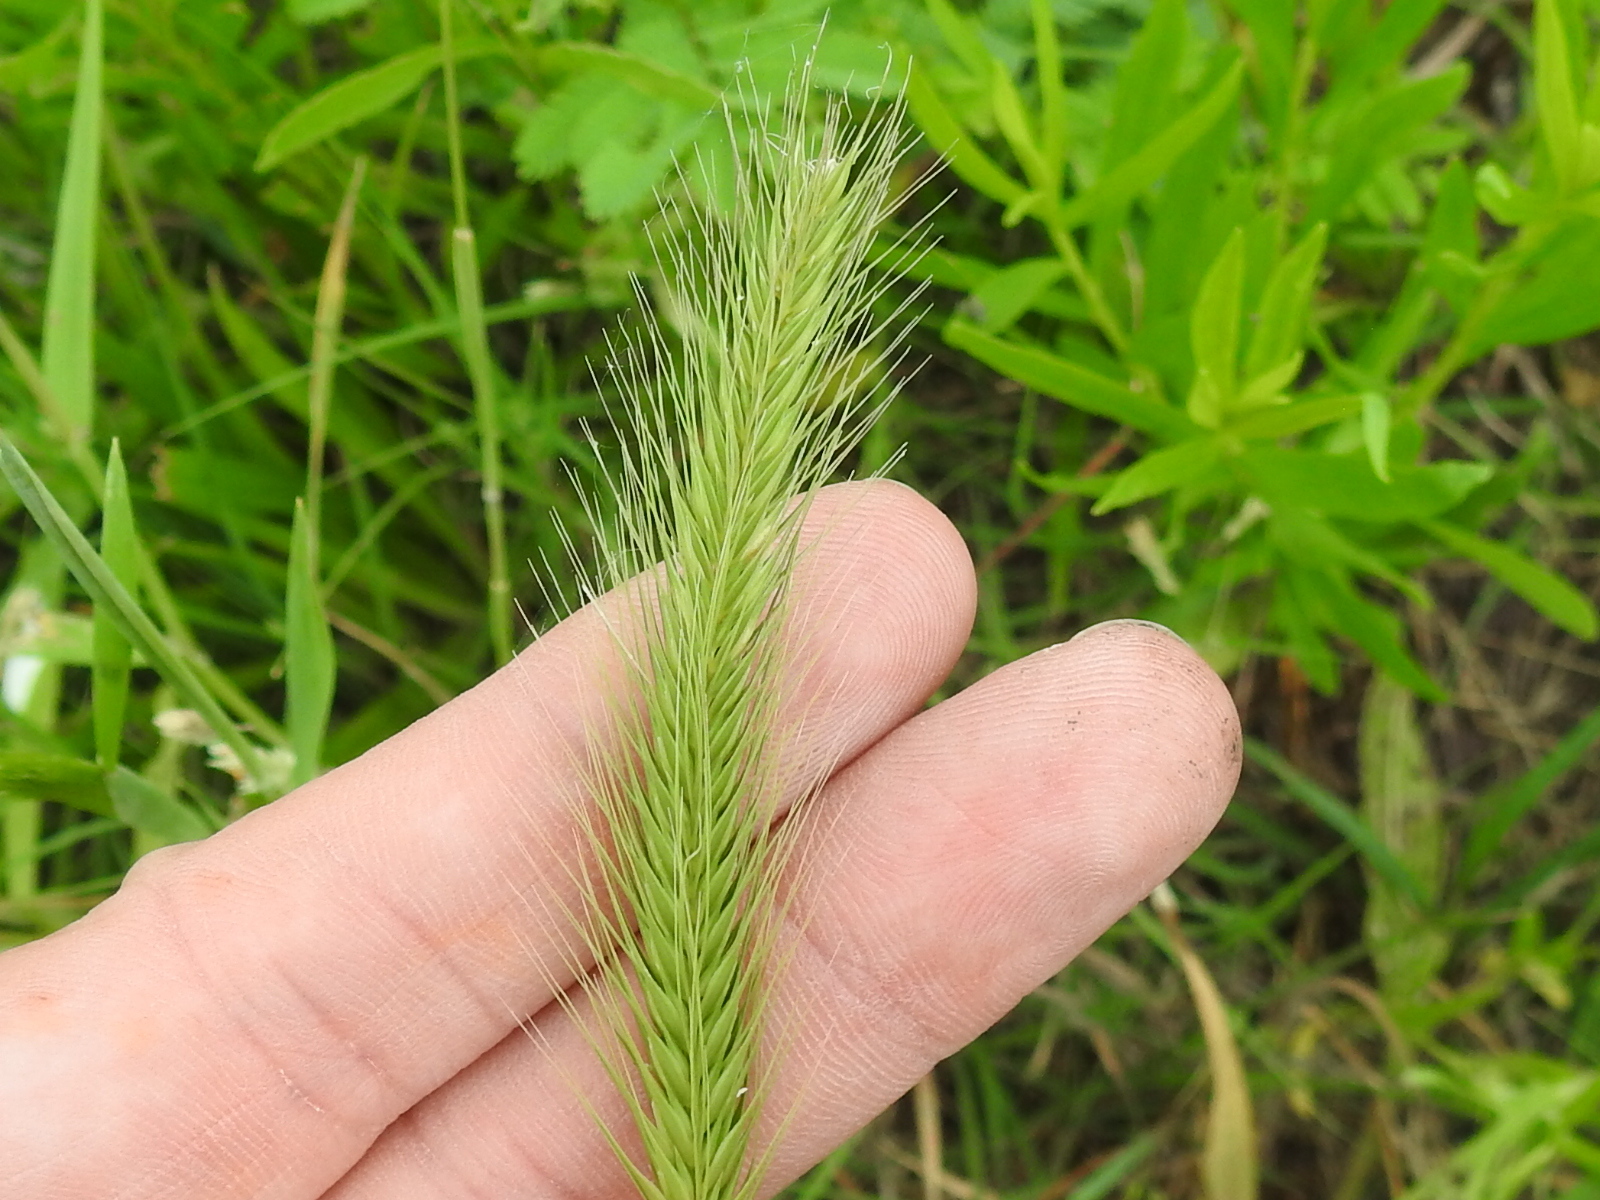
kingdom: Plantae
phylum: Tracheophyta
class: Liliopsida
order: Poales
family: Poaceae
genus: Hordeum
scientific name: Hordeum pusillum
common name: Little barley
